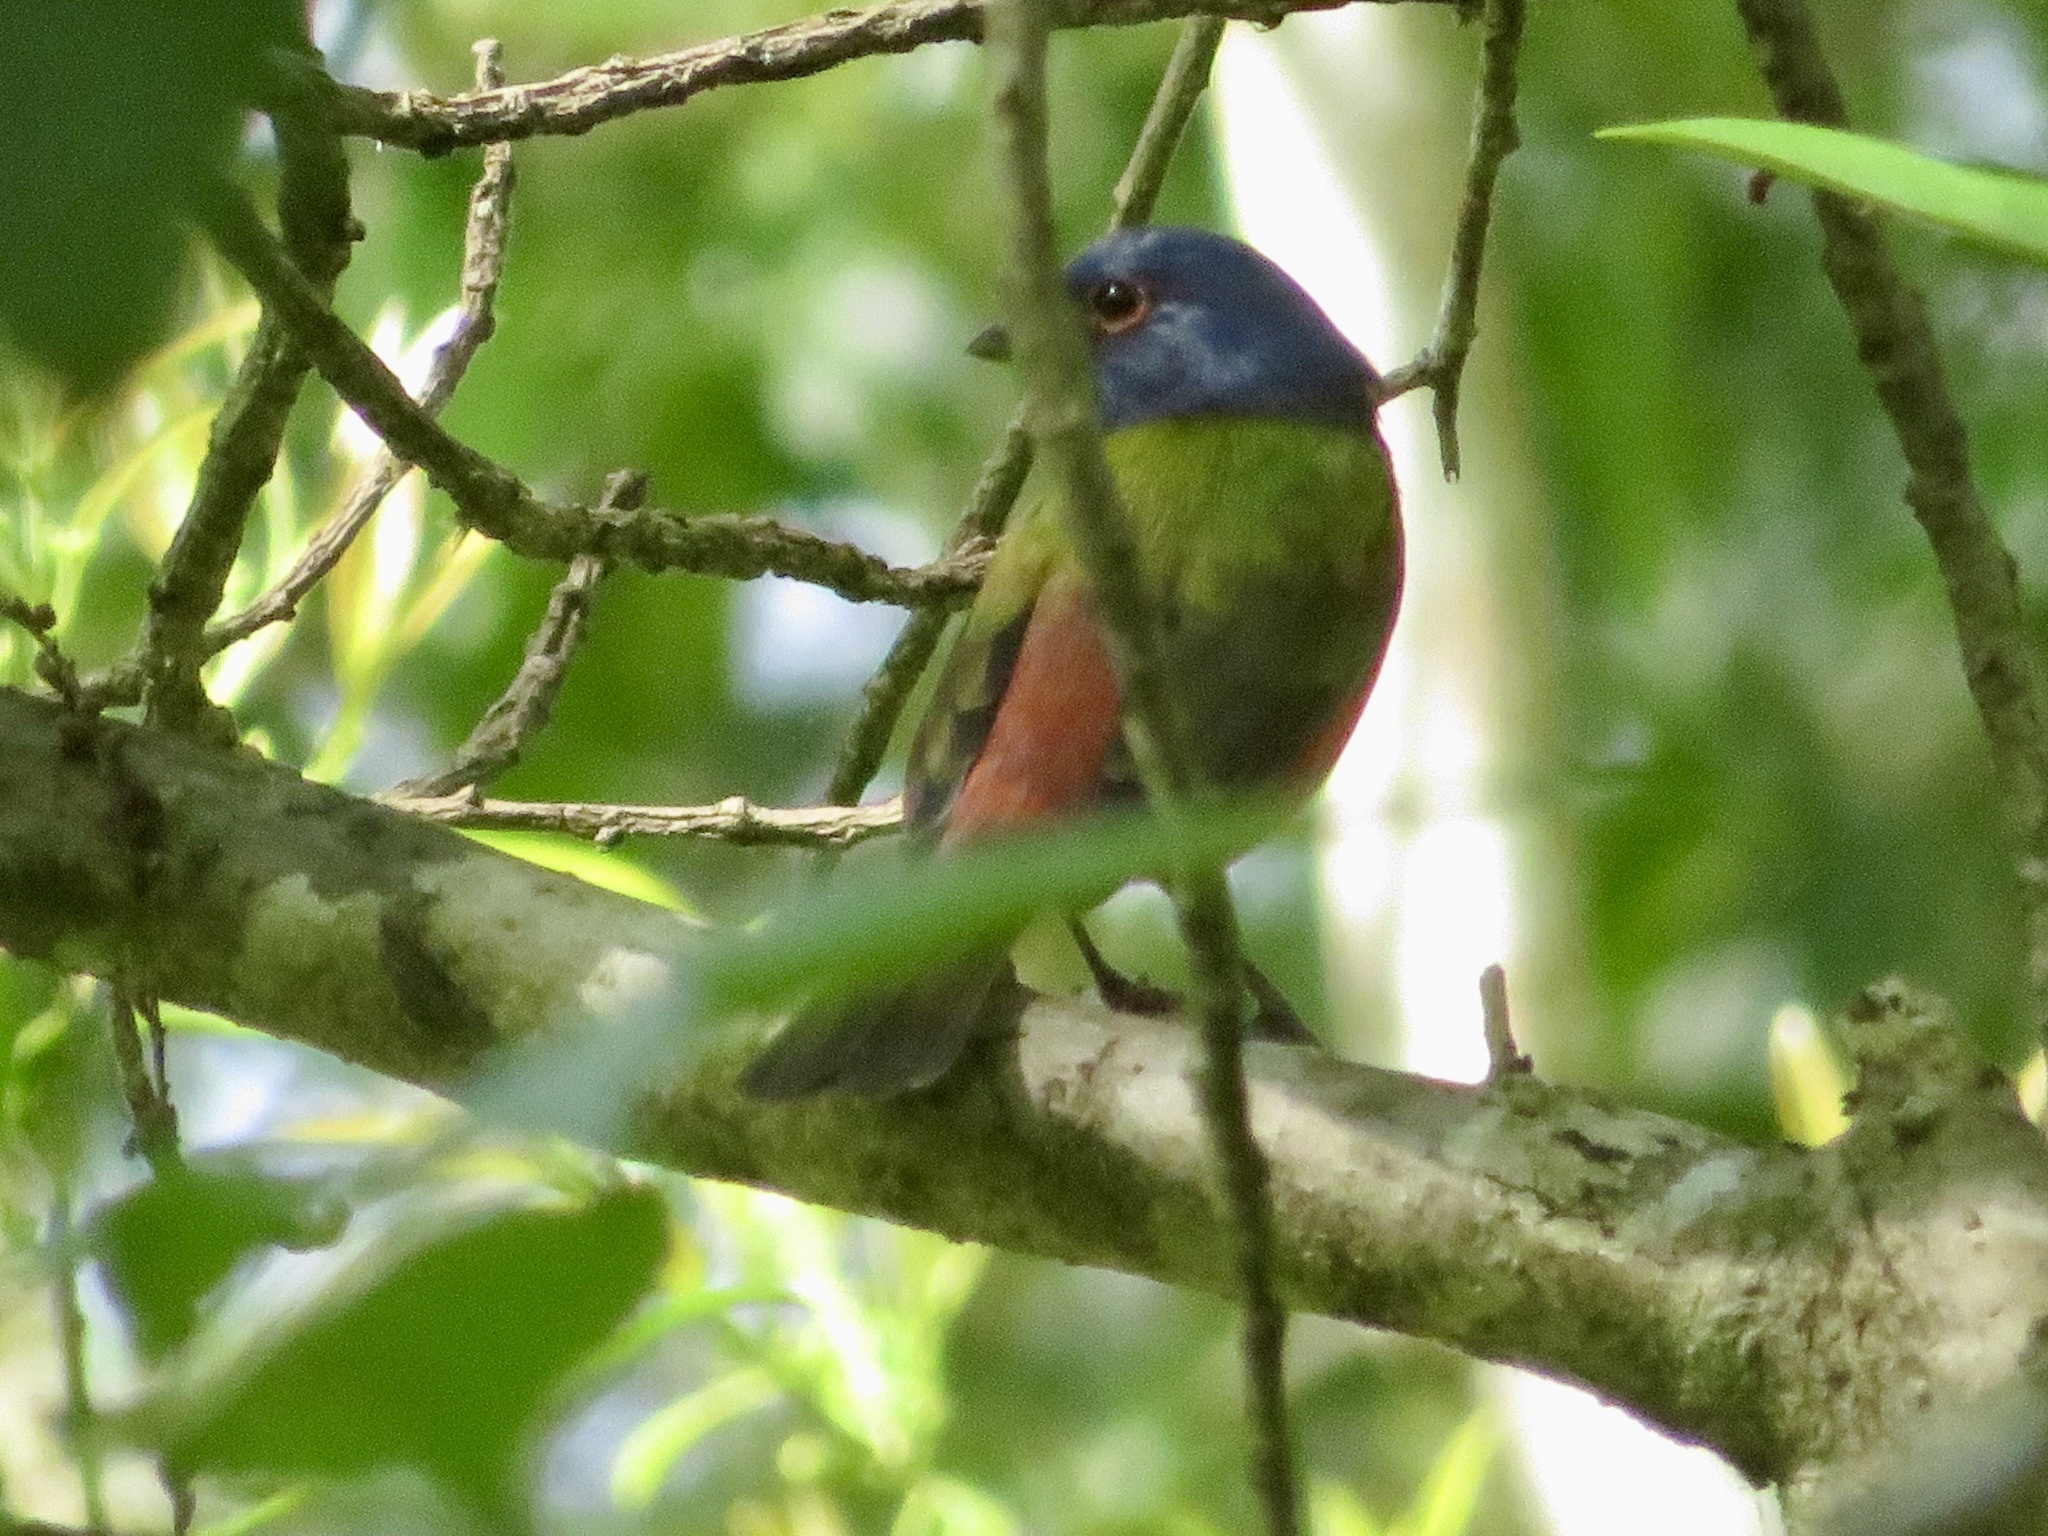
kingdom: Animalia
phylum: Chordata
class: Aves
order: Passeriformes
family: Cardinalidae
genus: Passerina
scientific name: Passerina ciris
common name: Painted bunting
